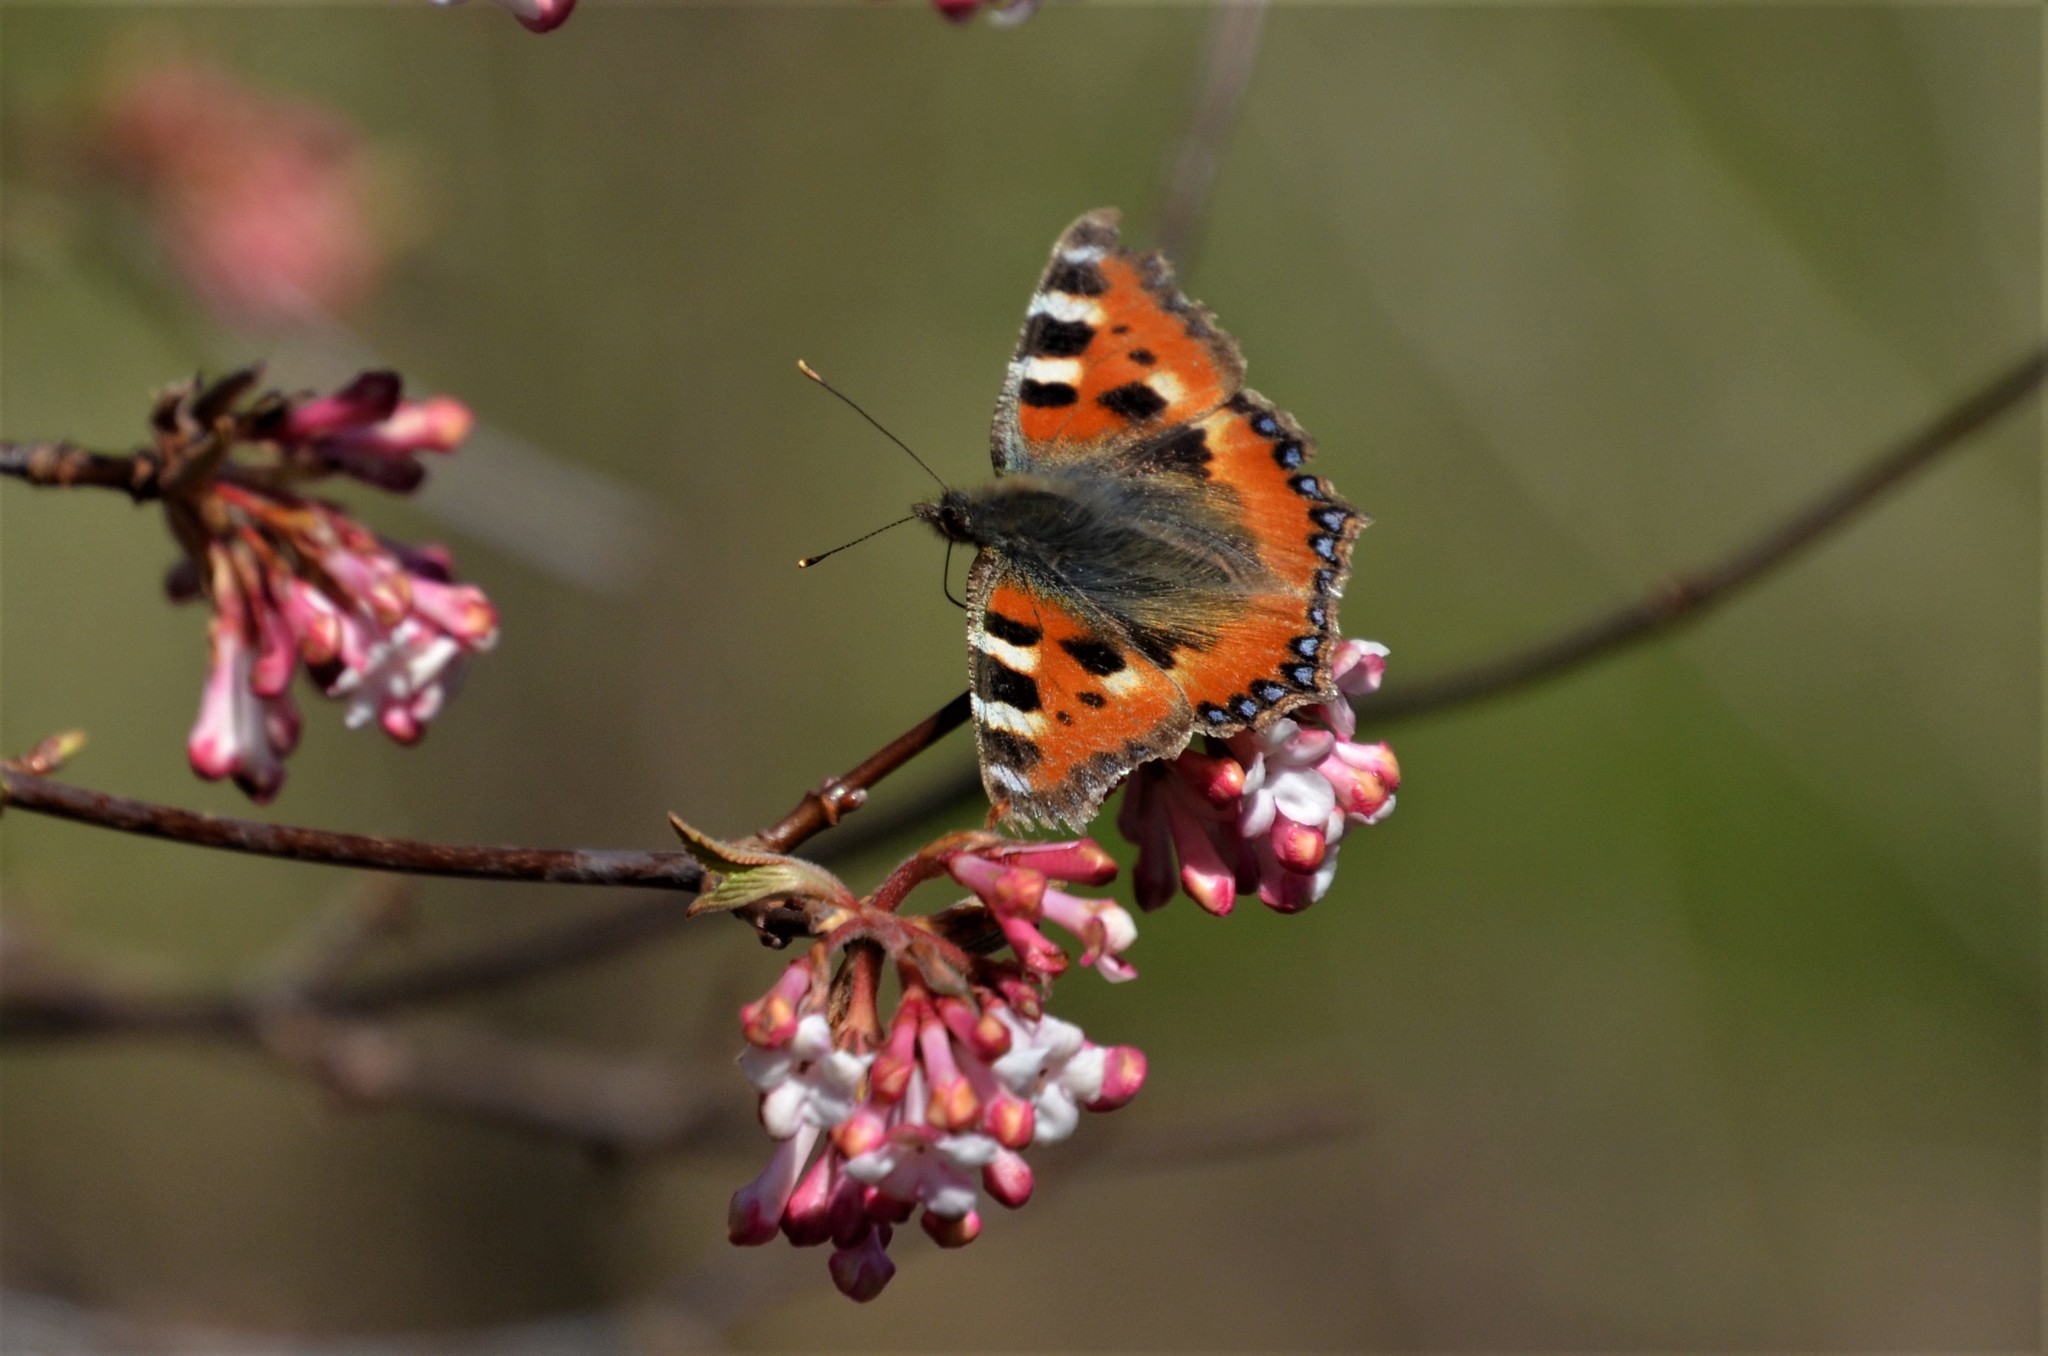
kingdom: Animalia
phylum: Arthropoda
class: Insecta
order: Lepidoptera
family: Nymphalidae
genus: Aglais
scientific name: Aglais urticae
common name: Small tortoiseshell
